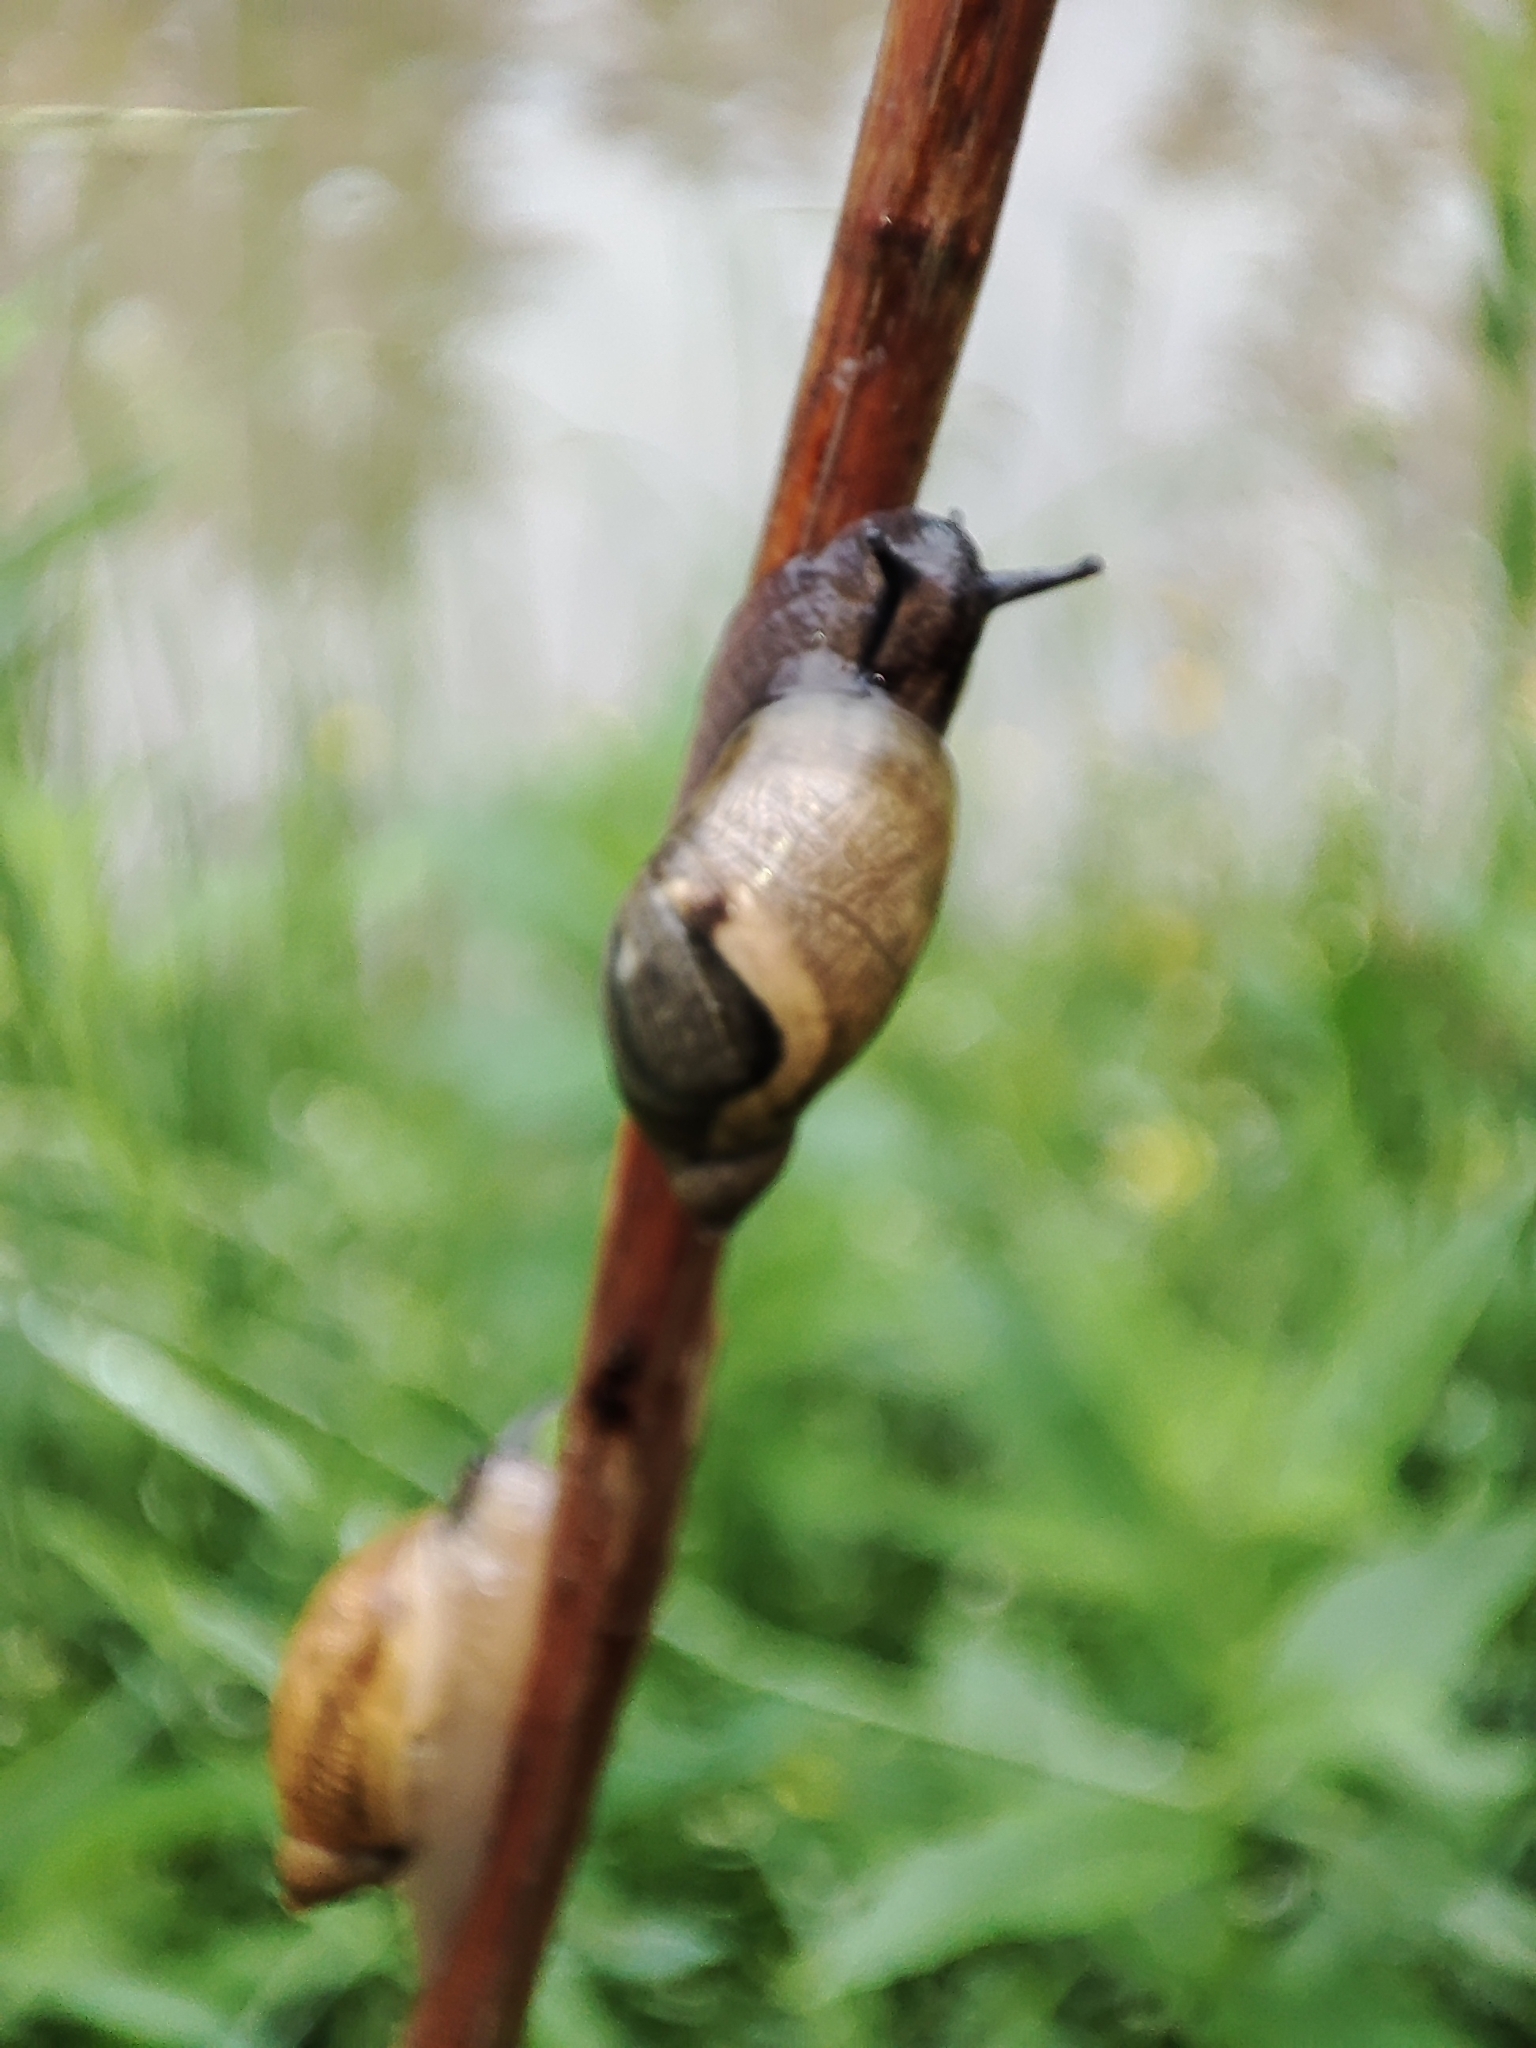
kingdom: Animalia
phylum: Mollusca
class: Gastropoda
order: Stylommatophora
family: Succineidae
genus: Succinea
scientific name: Succinea putris
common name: European ambersnail
